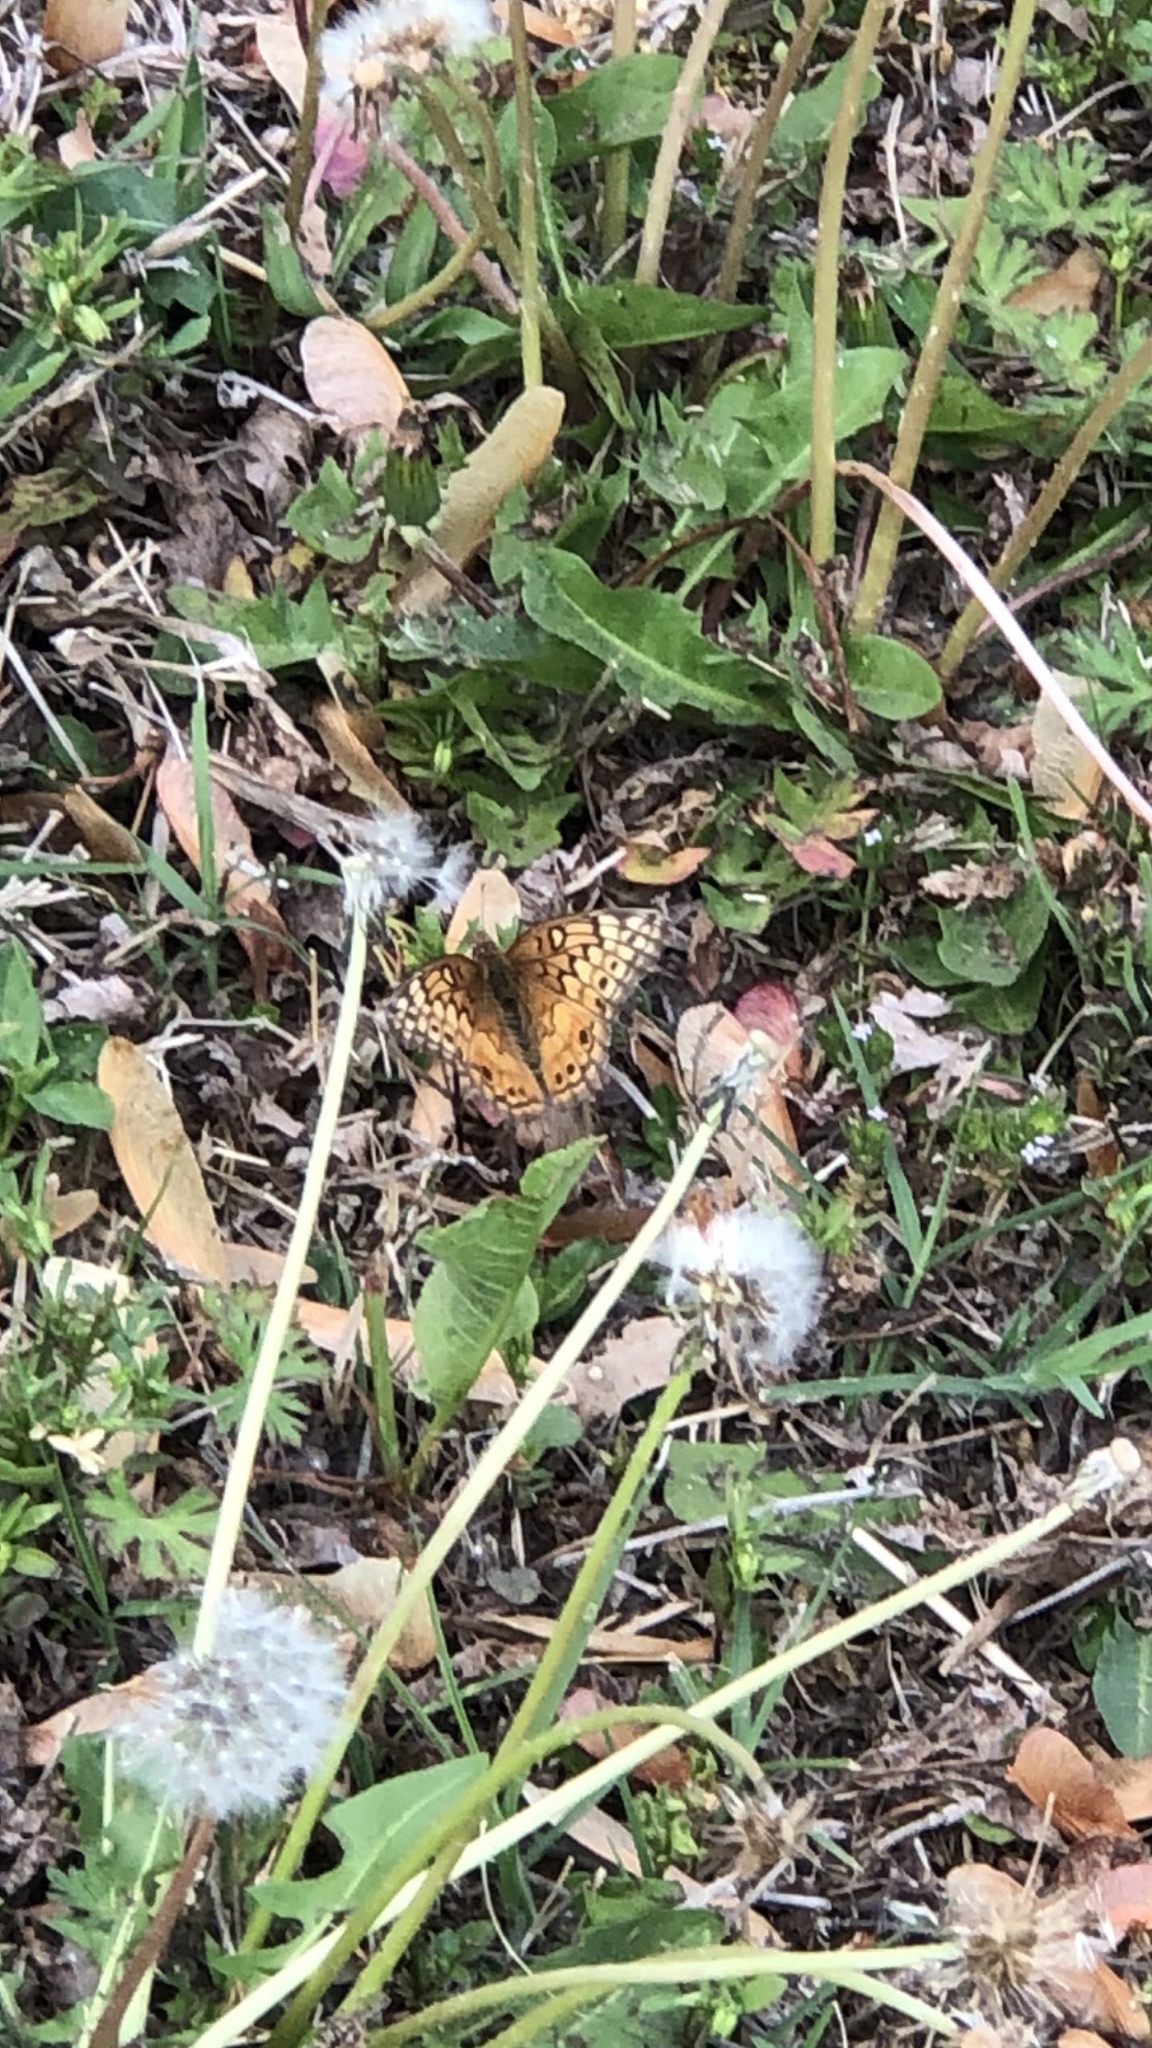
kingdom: Animalia
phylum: Arthropoda
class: Insecta
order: Lepidoptera
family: Nymphalidae
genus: Euptoieta
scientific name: Euptoieta claudia
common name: Variegated fritillary
